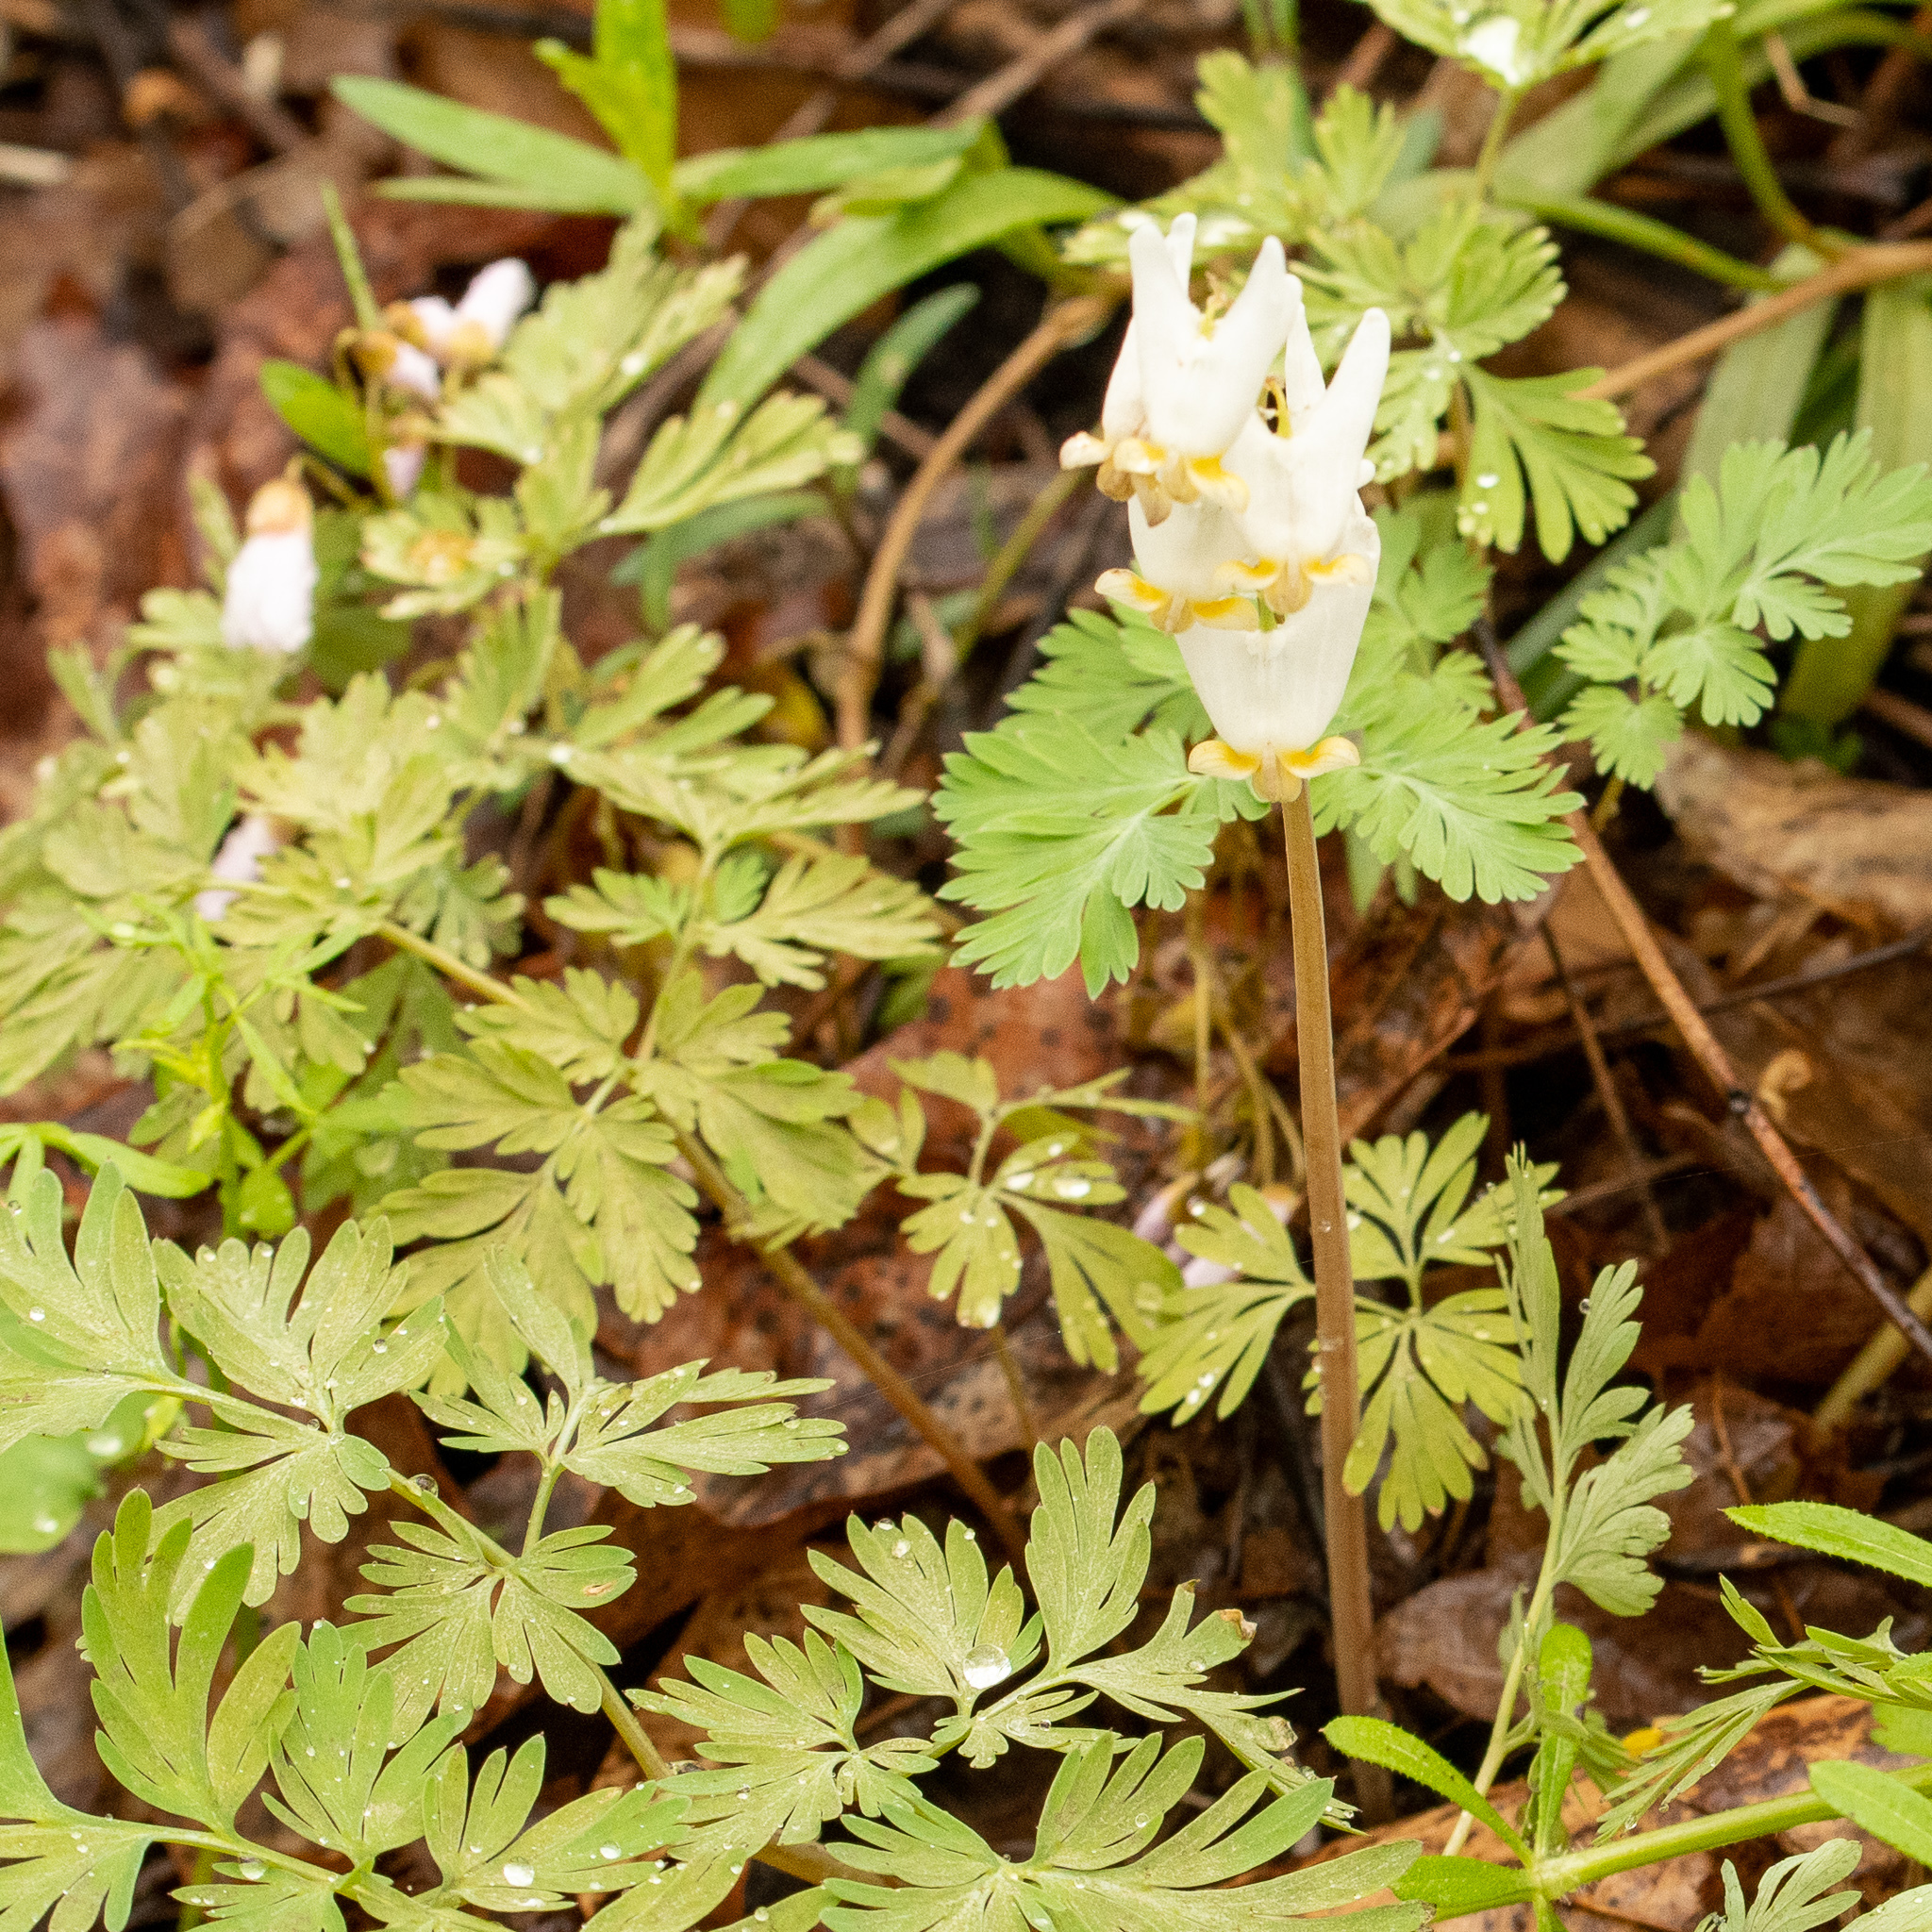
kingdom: Plantae
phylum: Tracheophyta
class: Magnoliopsida
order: Ranunculales
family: Papaveraceae
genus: Dicentra
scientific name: Dicentra cucullaria
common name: Dutchman's breeches
